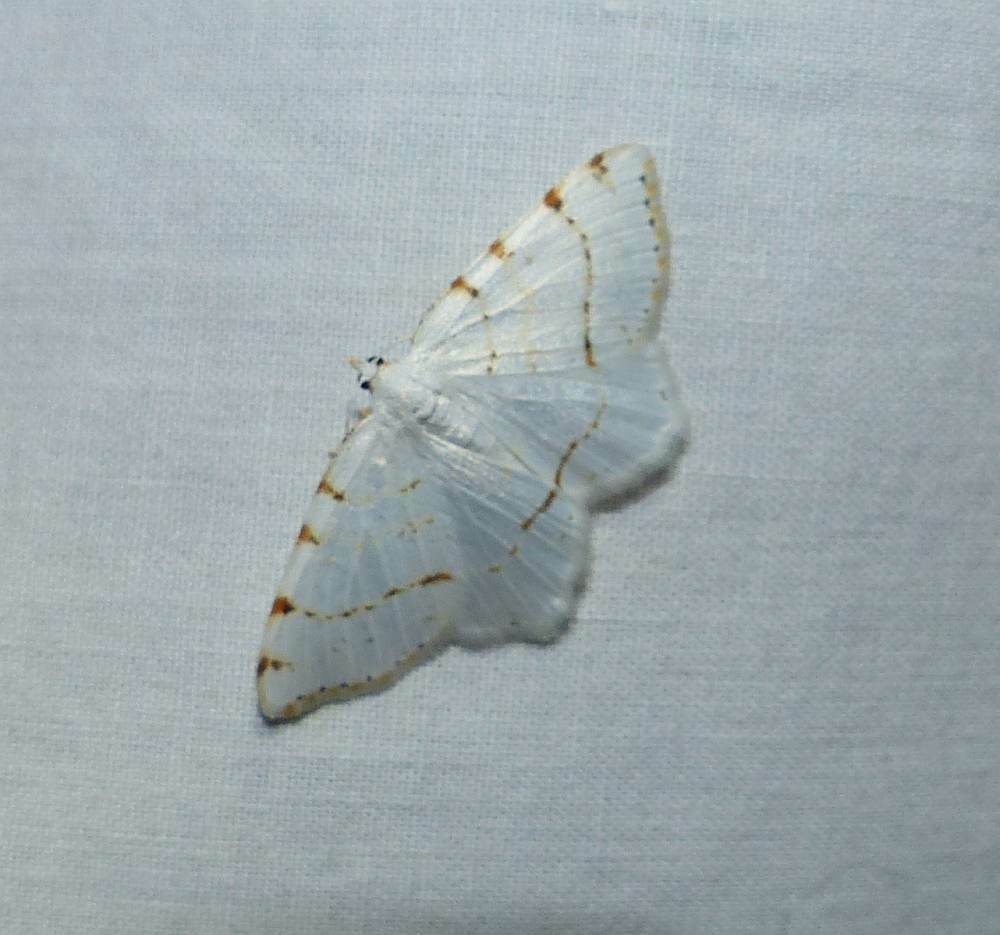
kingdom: Animalia
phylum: Arthropoda
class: Insecta
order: Lepidoptera
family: Geometridae
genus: Macaria
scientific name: Macaria pustularia
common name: Lesser maple spanworm moth
